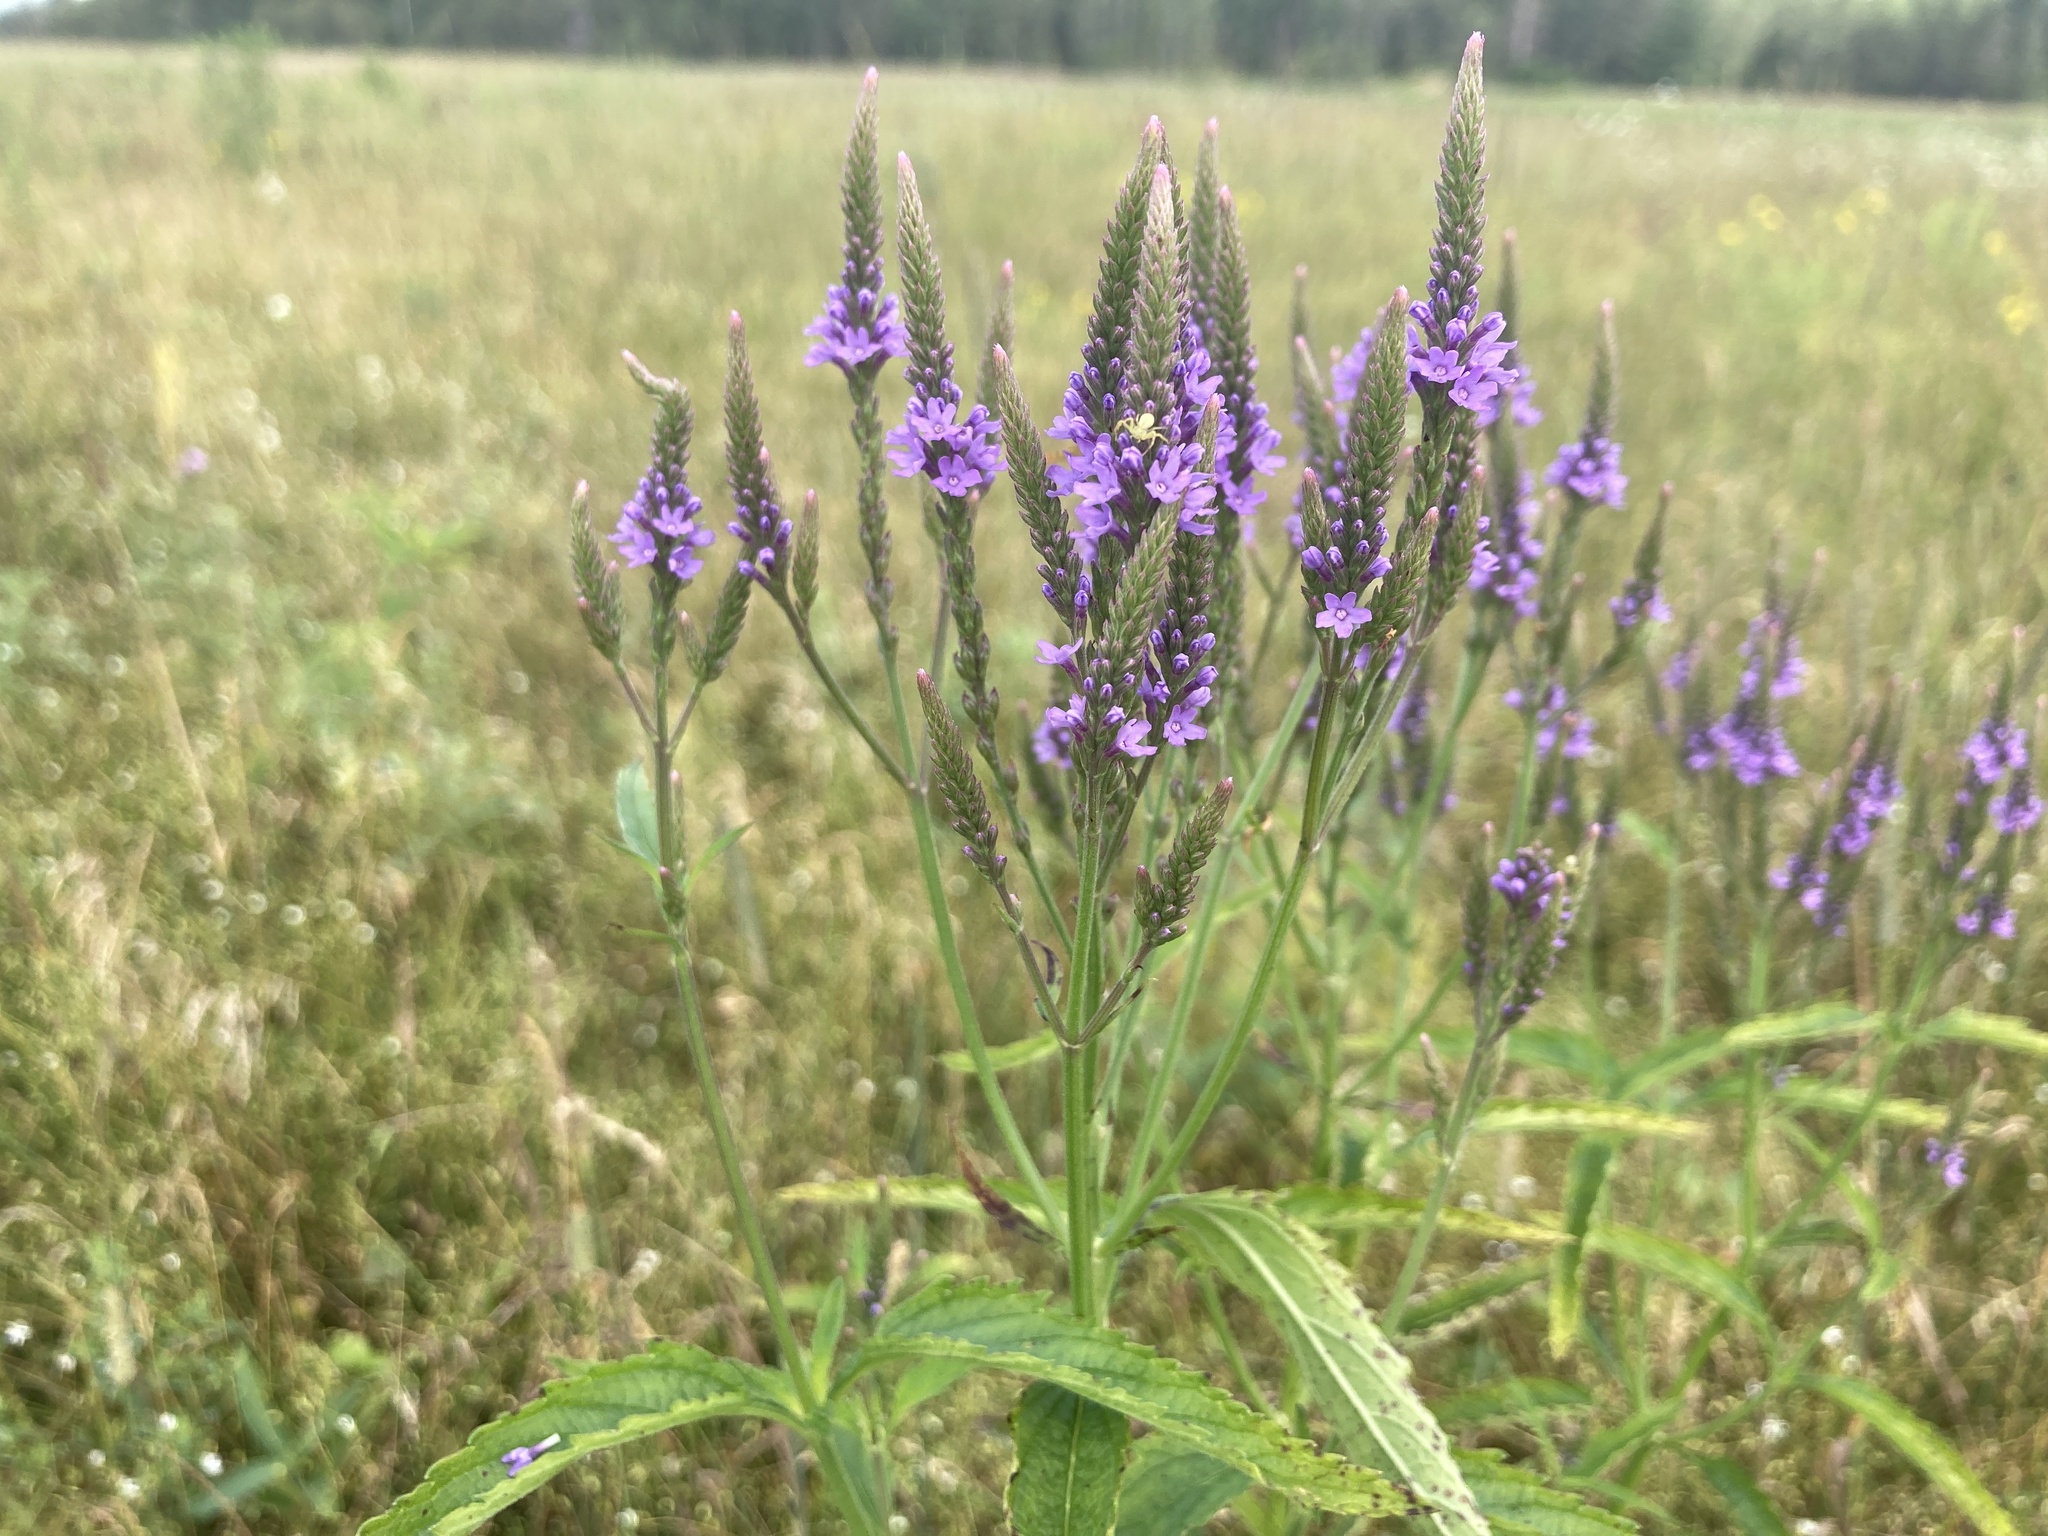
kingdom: Plantae
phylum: Tracheophyta
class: Magnoliopsida
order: Lamiales
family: Verbenaceae
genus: Verbena
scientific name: Verbena hastata
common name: American blue vervain
